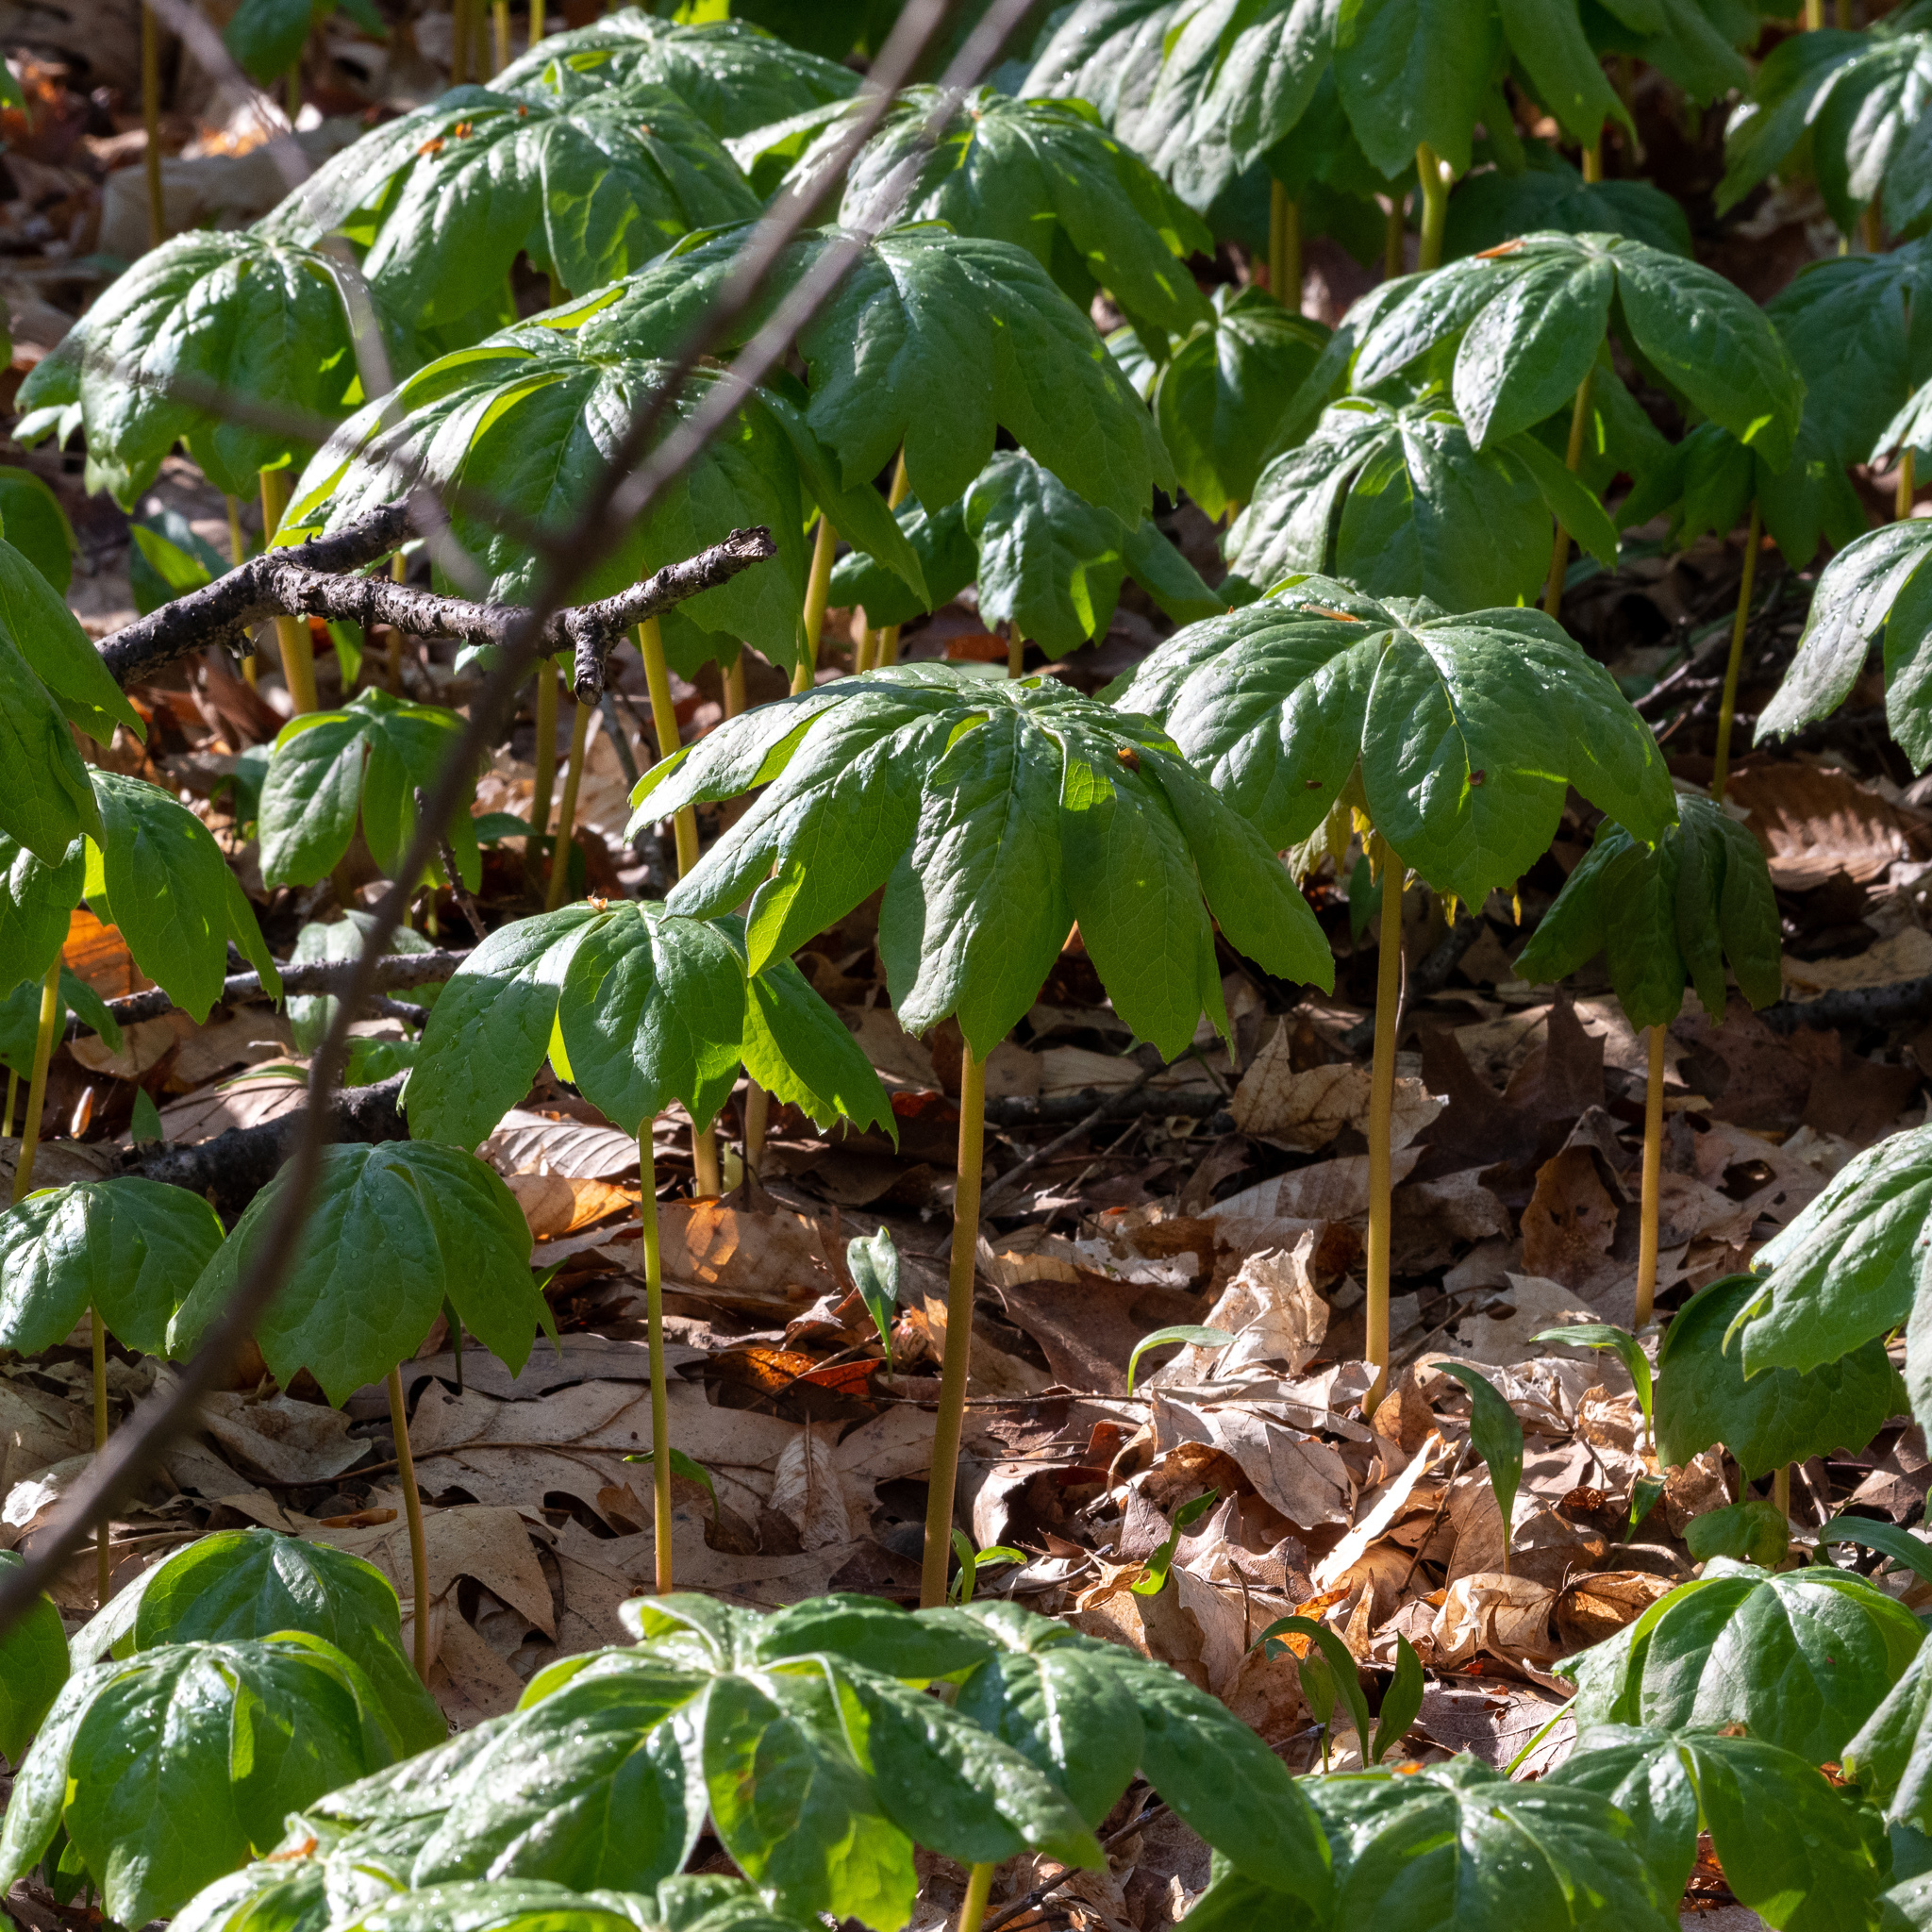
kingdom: Plantae
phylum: Tracheophyta
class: Magnoliopsida
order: Ranunculales
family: Berberidaceae
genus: Podophyllum
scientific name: Podophyllum peltatum
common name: Wild mandrake
